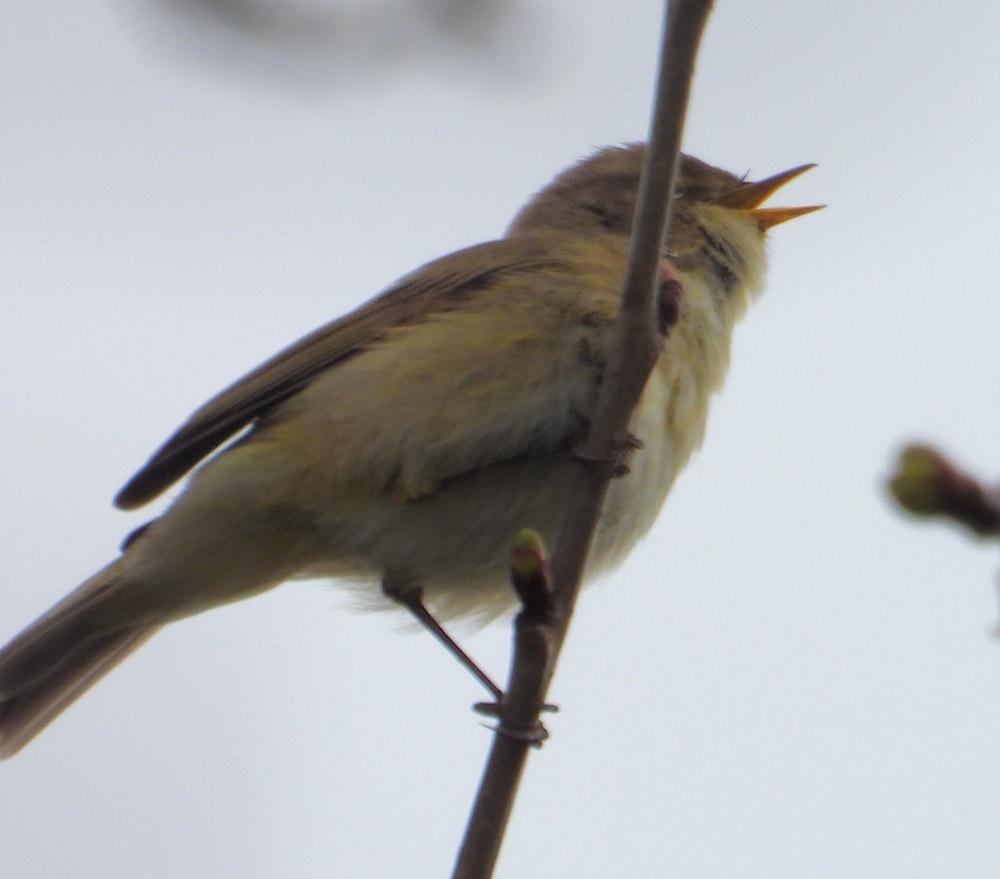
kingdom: Animalia
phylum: Chordata
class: Aves
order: Passeriformes
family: Phylloscopidae
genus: Phylloscopus
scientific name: Phylloscopus collybita
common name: Common chiffchaff
